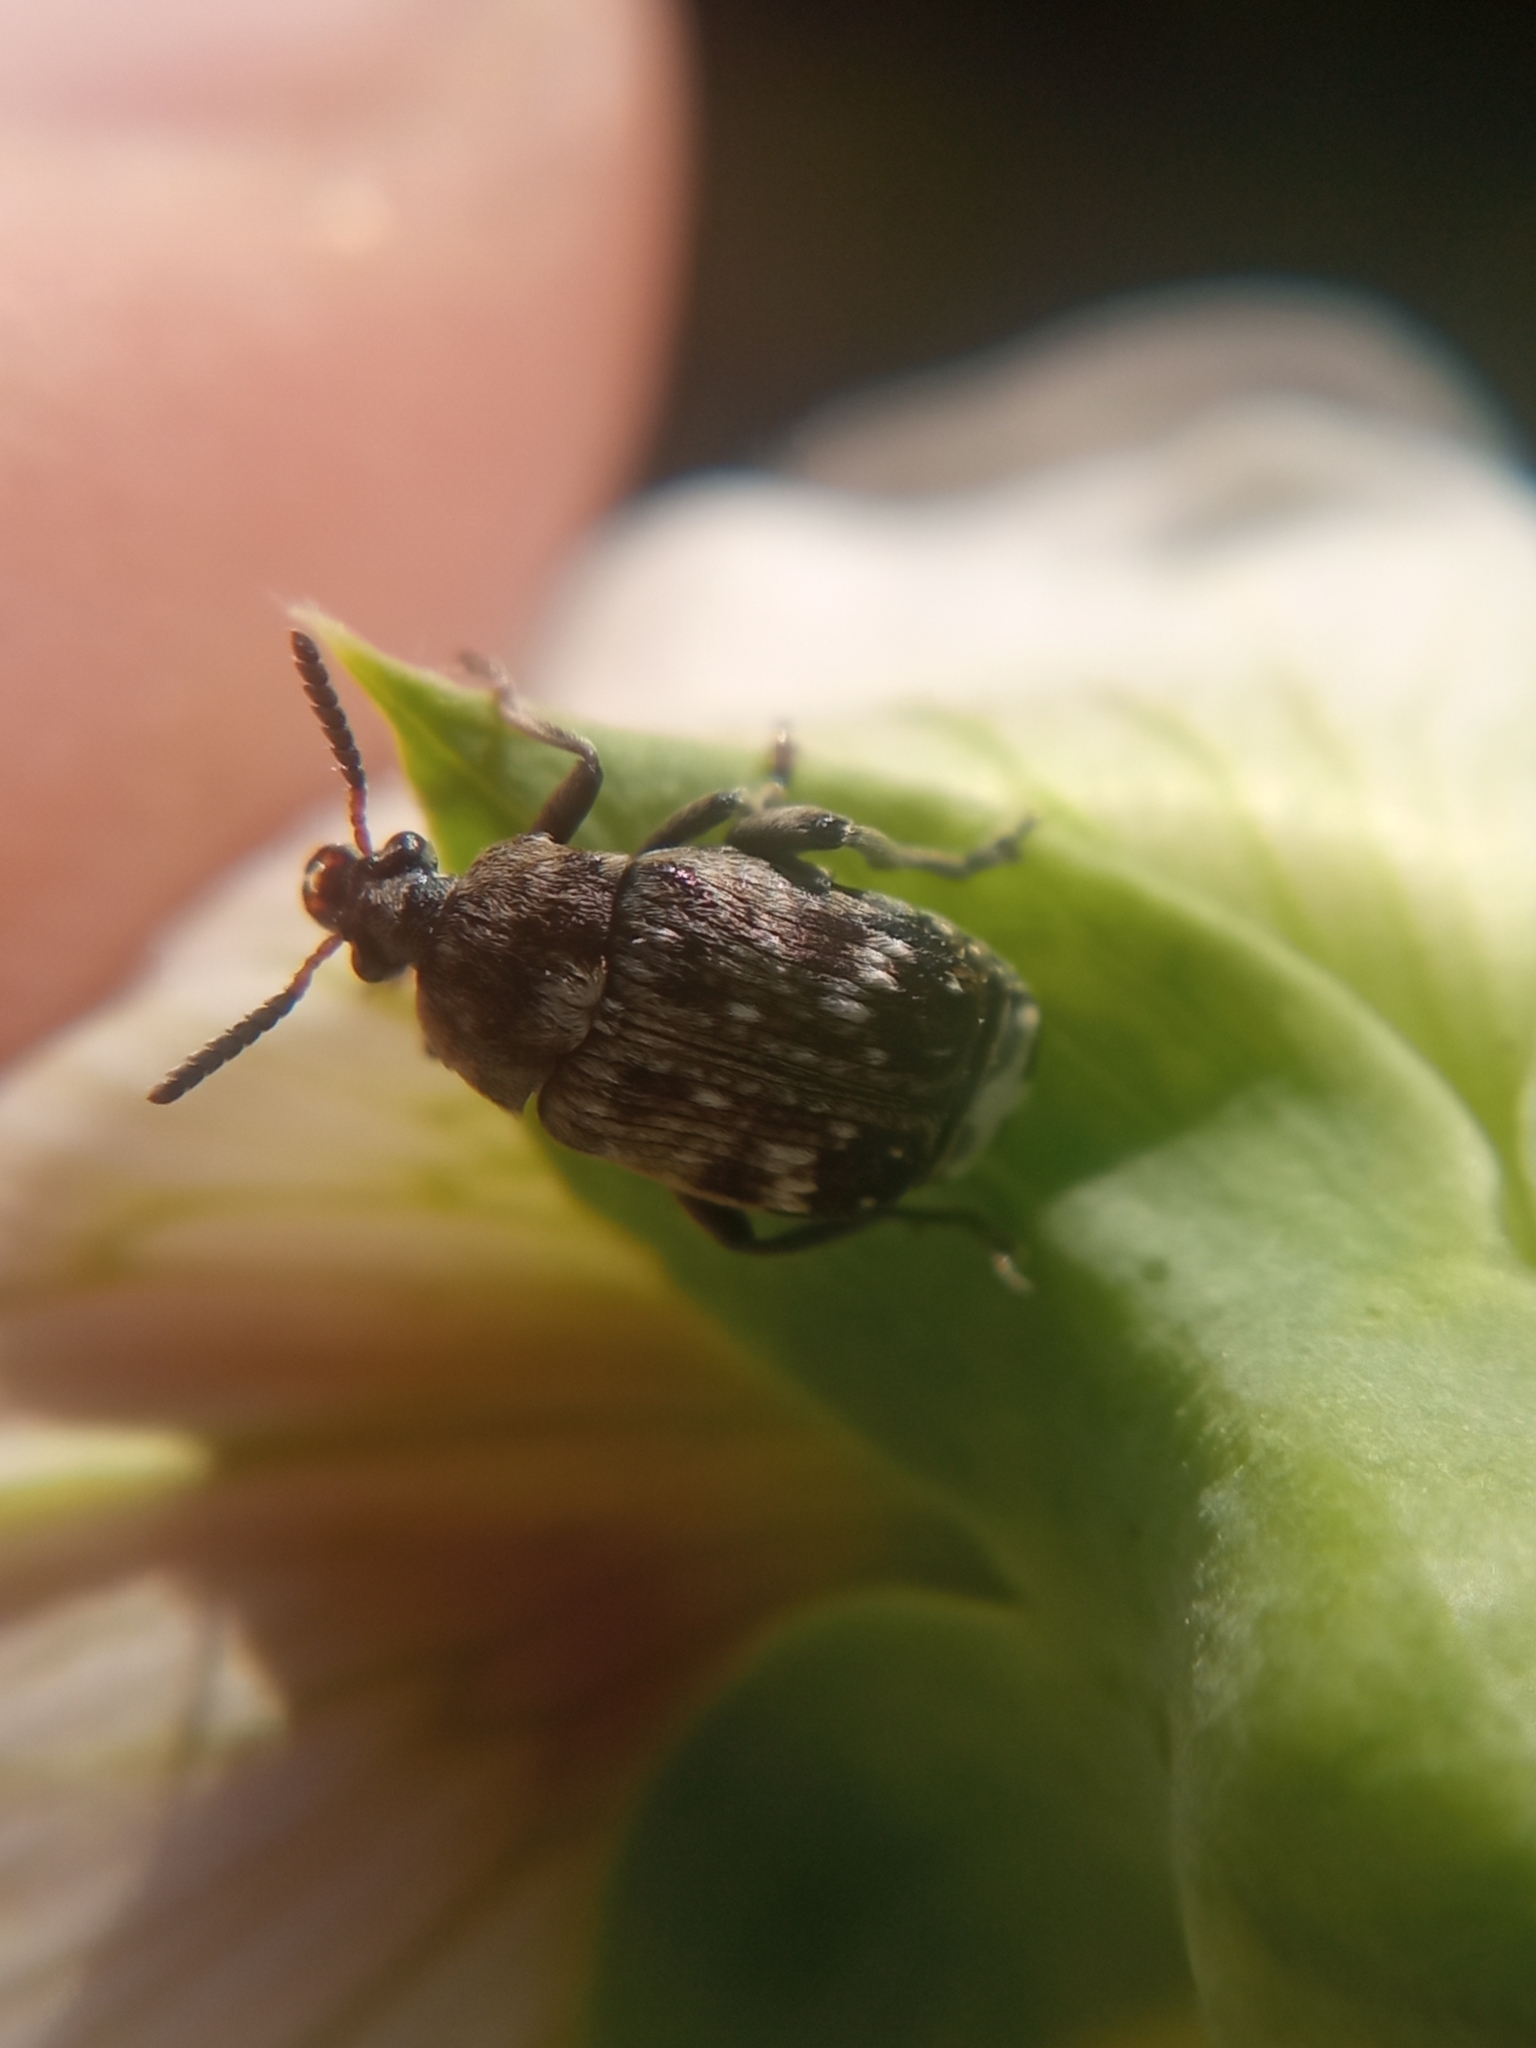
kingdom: Animalia
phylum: Arthropoda
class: Insecta
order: Coleoptera
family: Chrysomelidae
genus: Bruchus
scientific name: Bruchus pisorum
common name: Pea weevil
